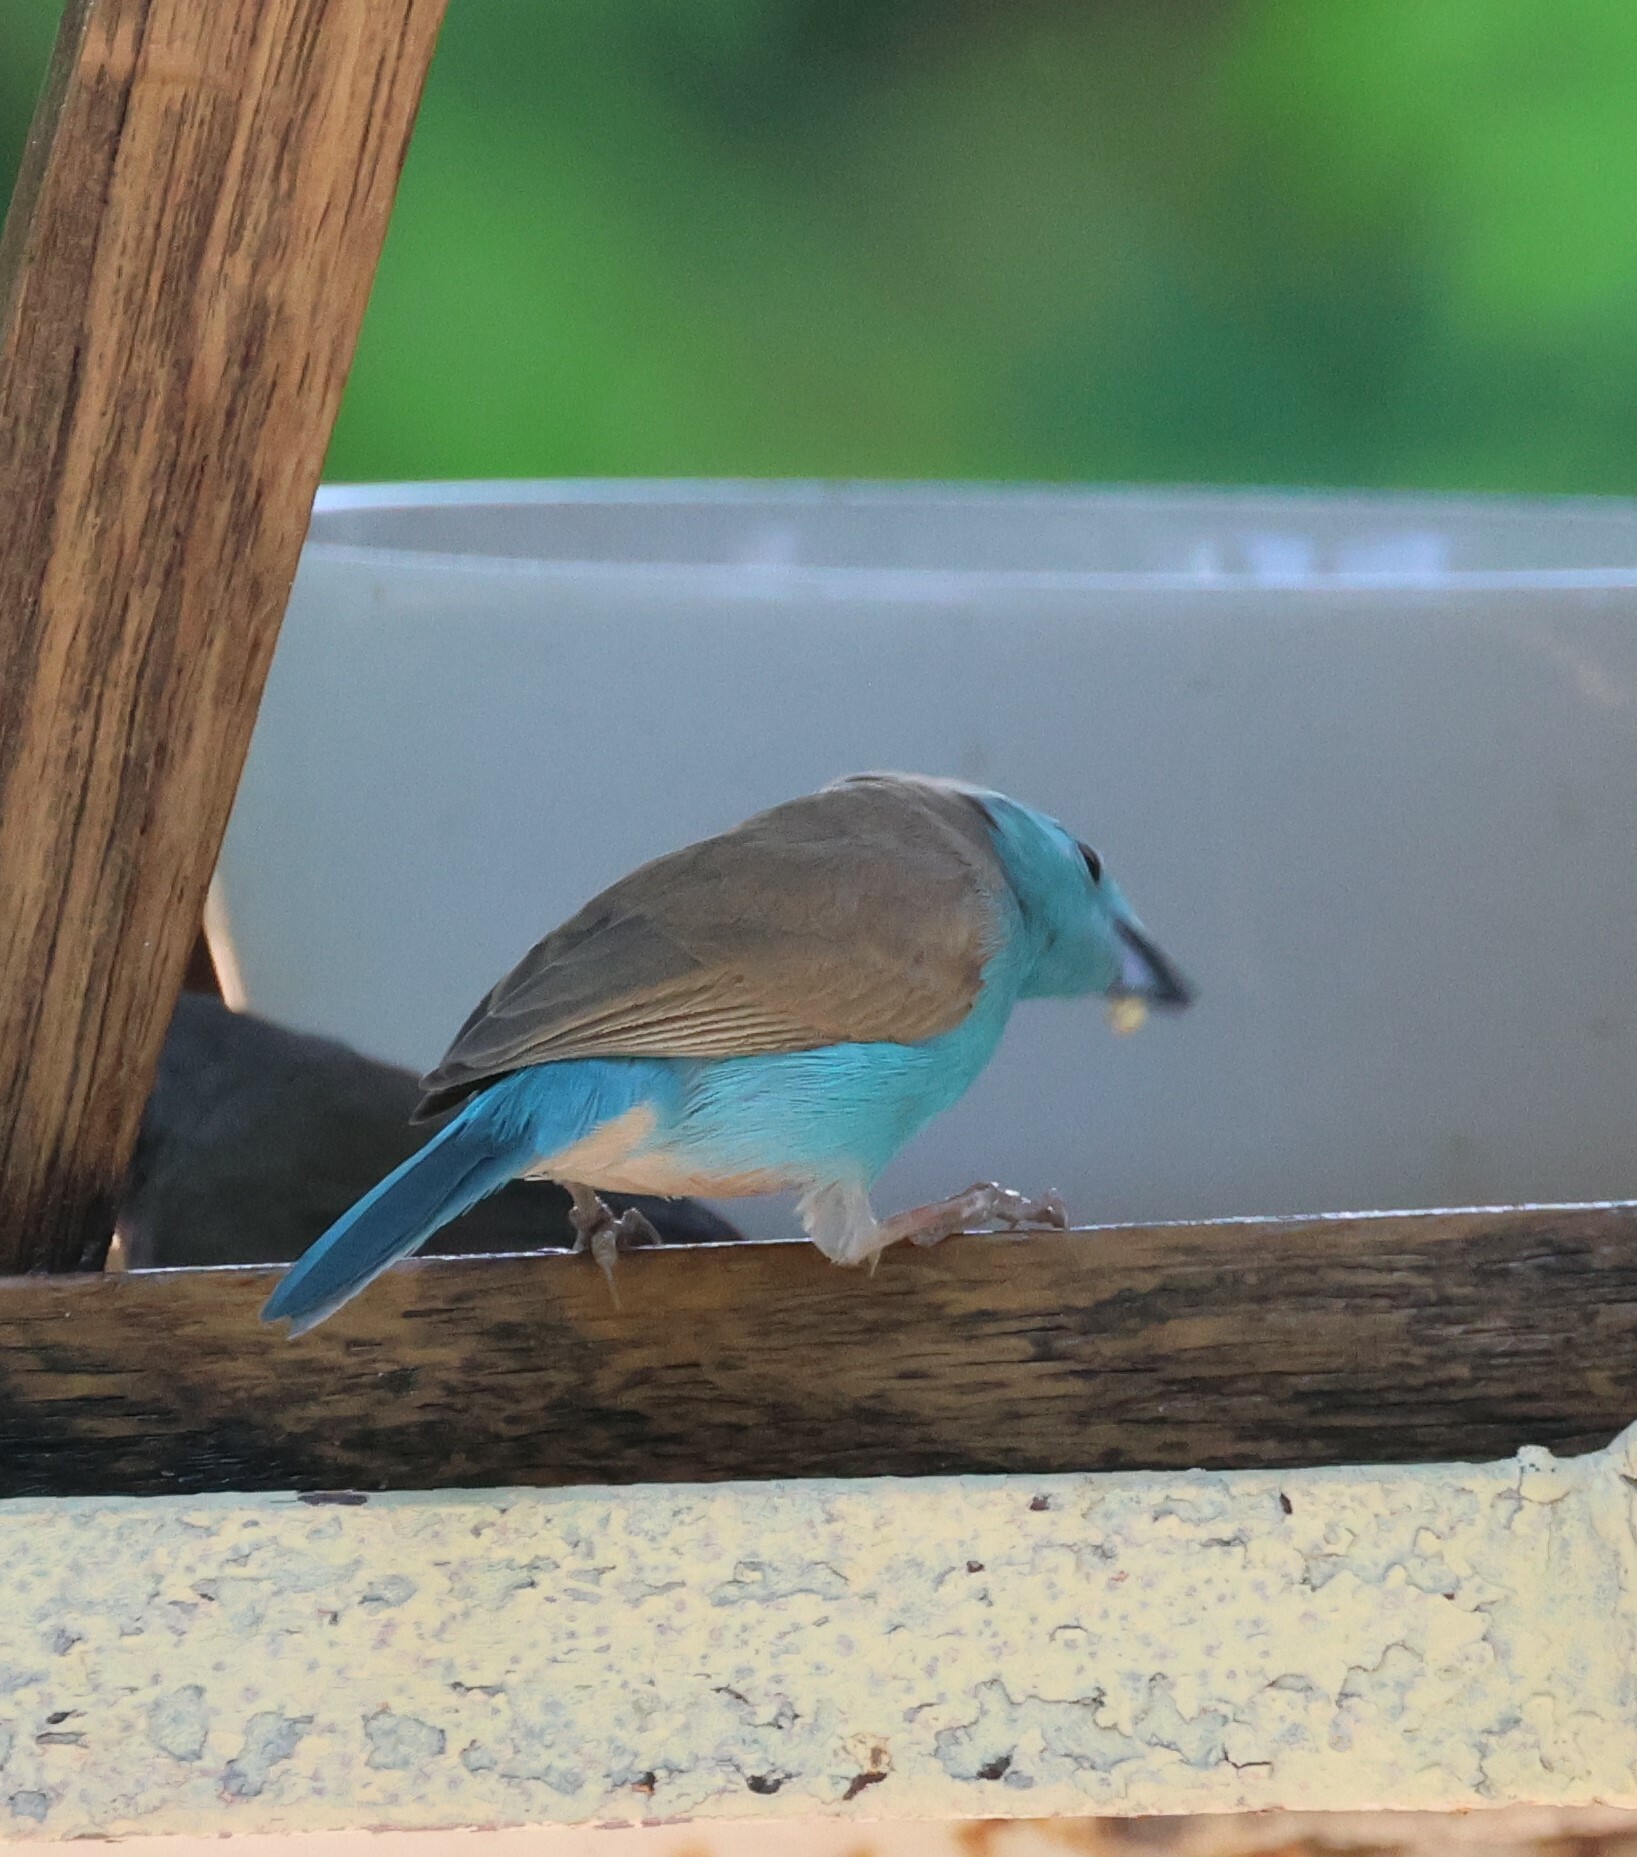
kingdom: Animalia
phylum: Chordata
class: Aves
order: Passeriformes
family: Estrildidae
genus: Uraeginthus
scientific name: Uraeginthus angolensis
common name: Blue waxbill
